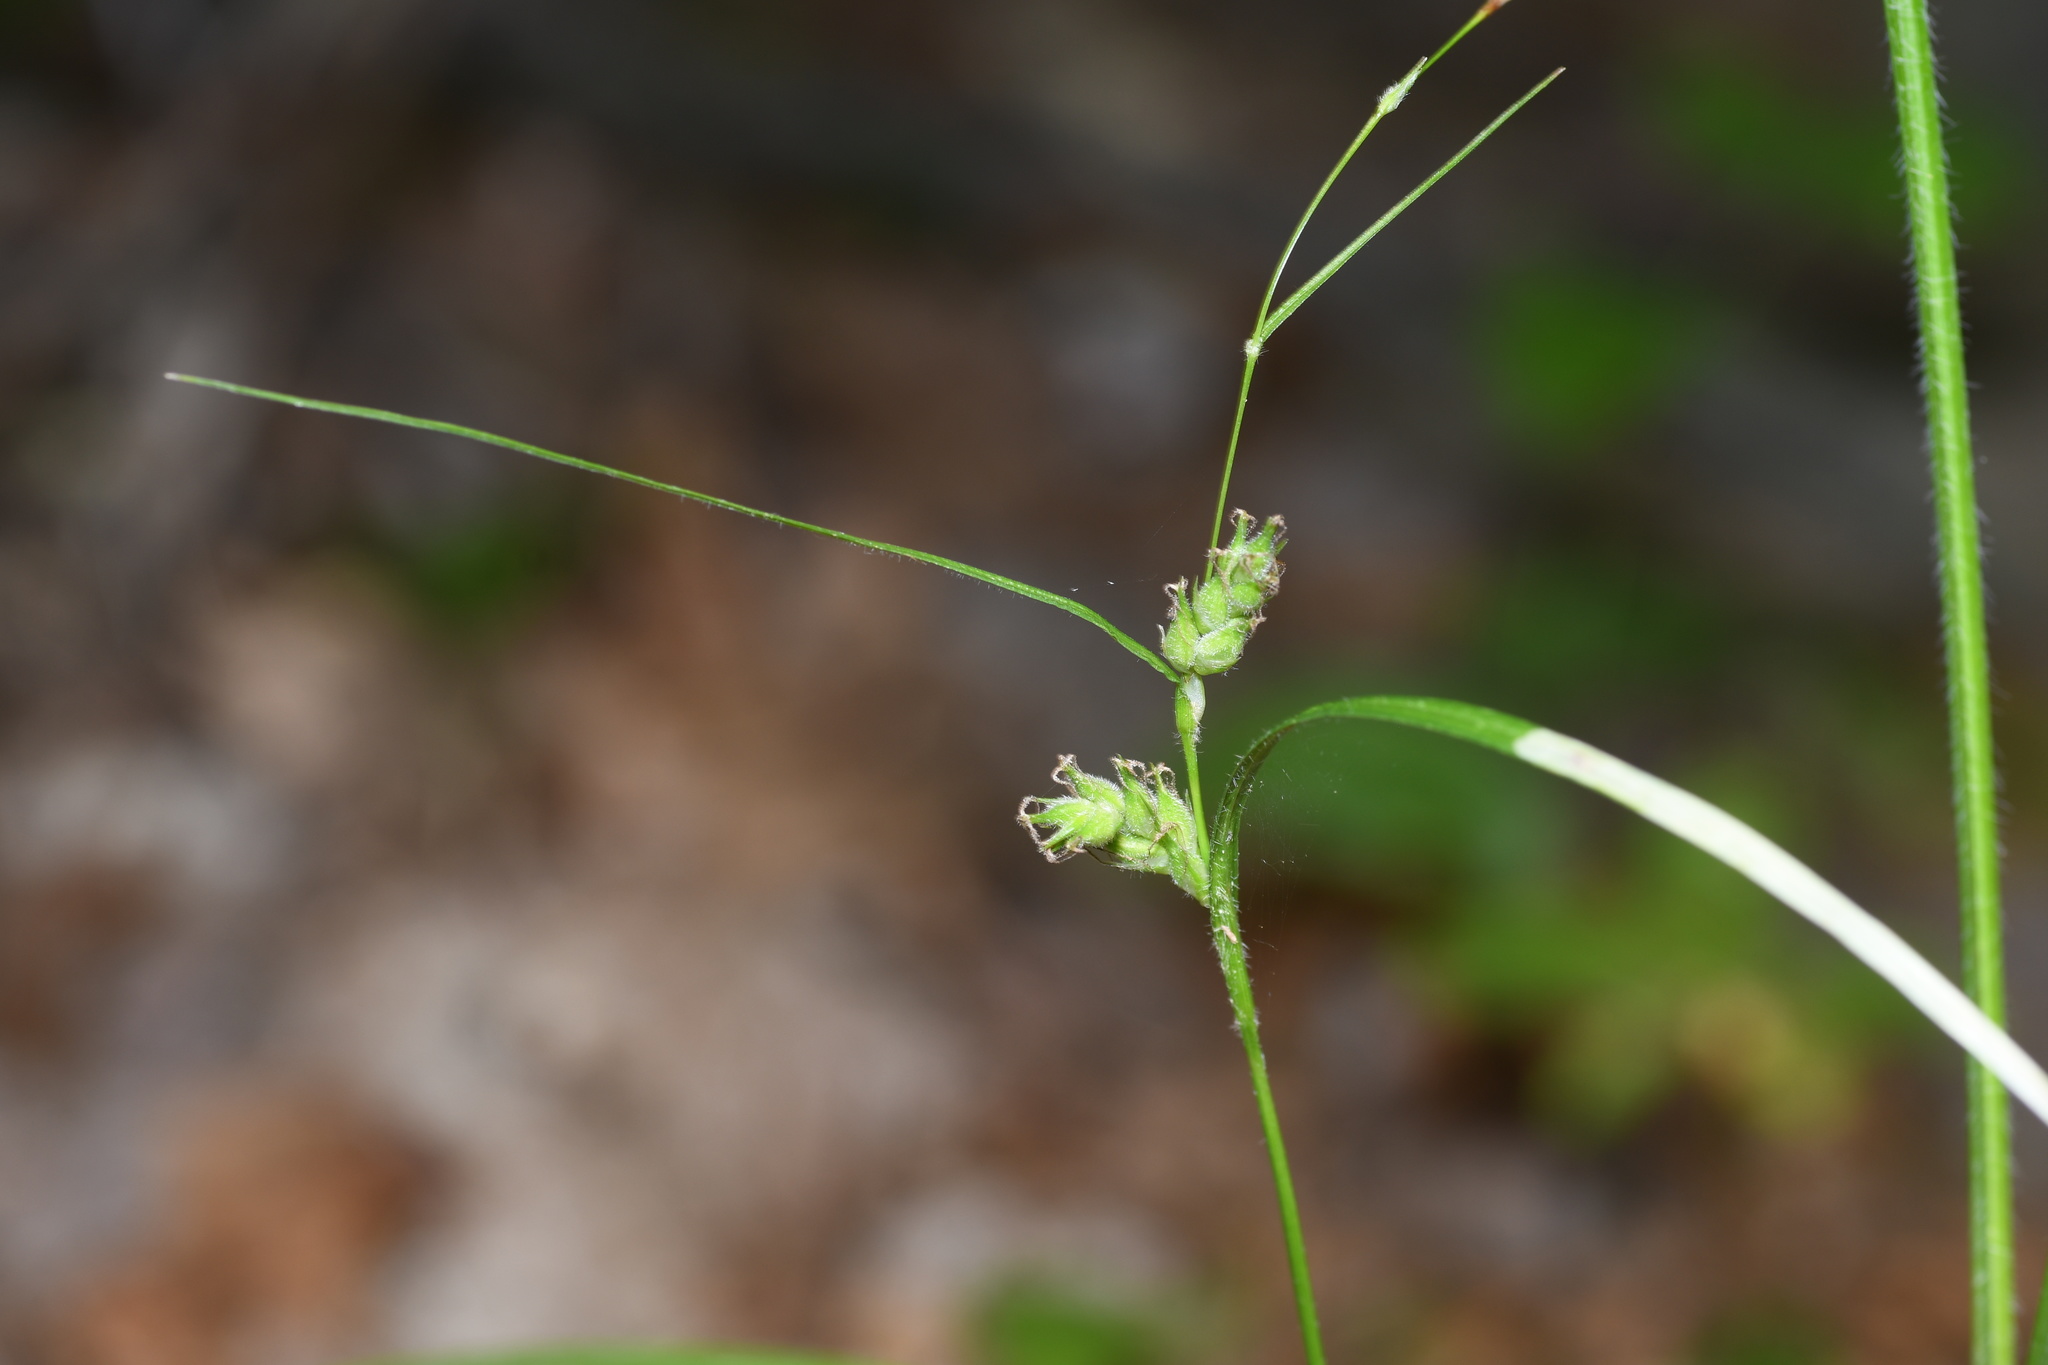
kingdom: Plantae
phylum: Tracheophyta
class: Liliopsida
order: Poales
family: Cyperaceae
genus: Carex
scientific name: Carex hirta
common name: Hairy sedge
